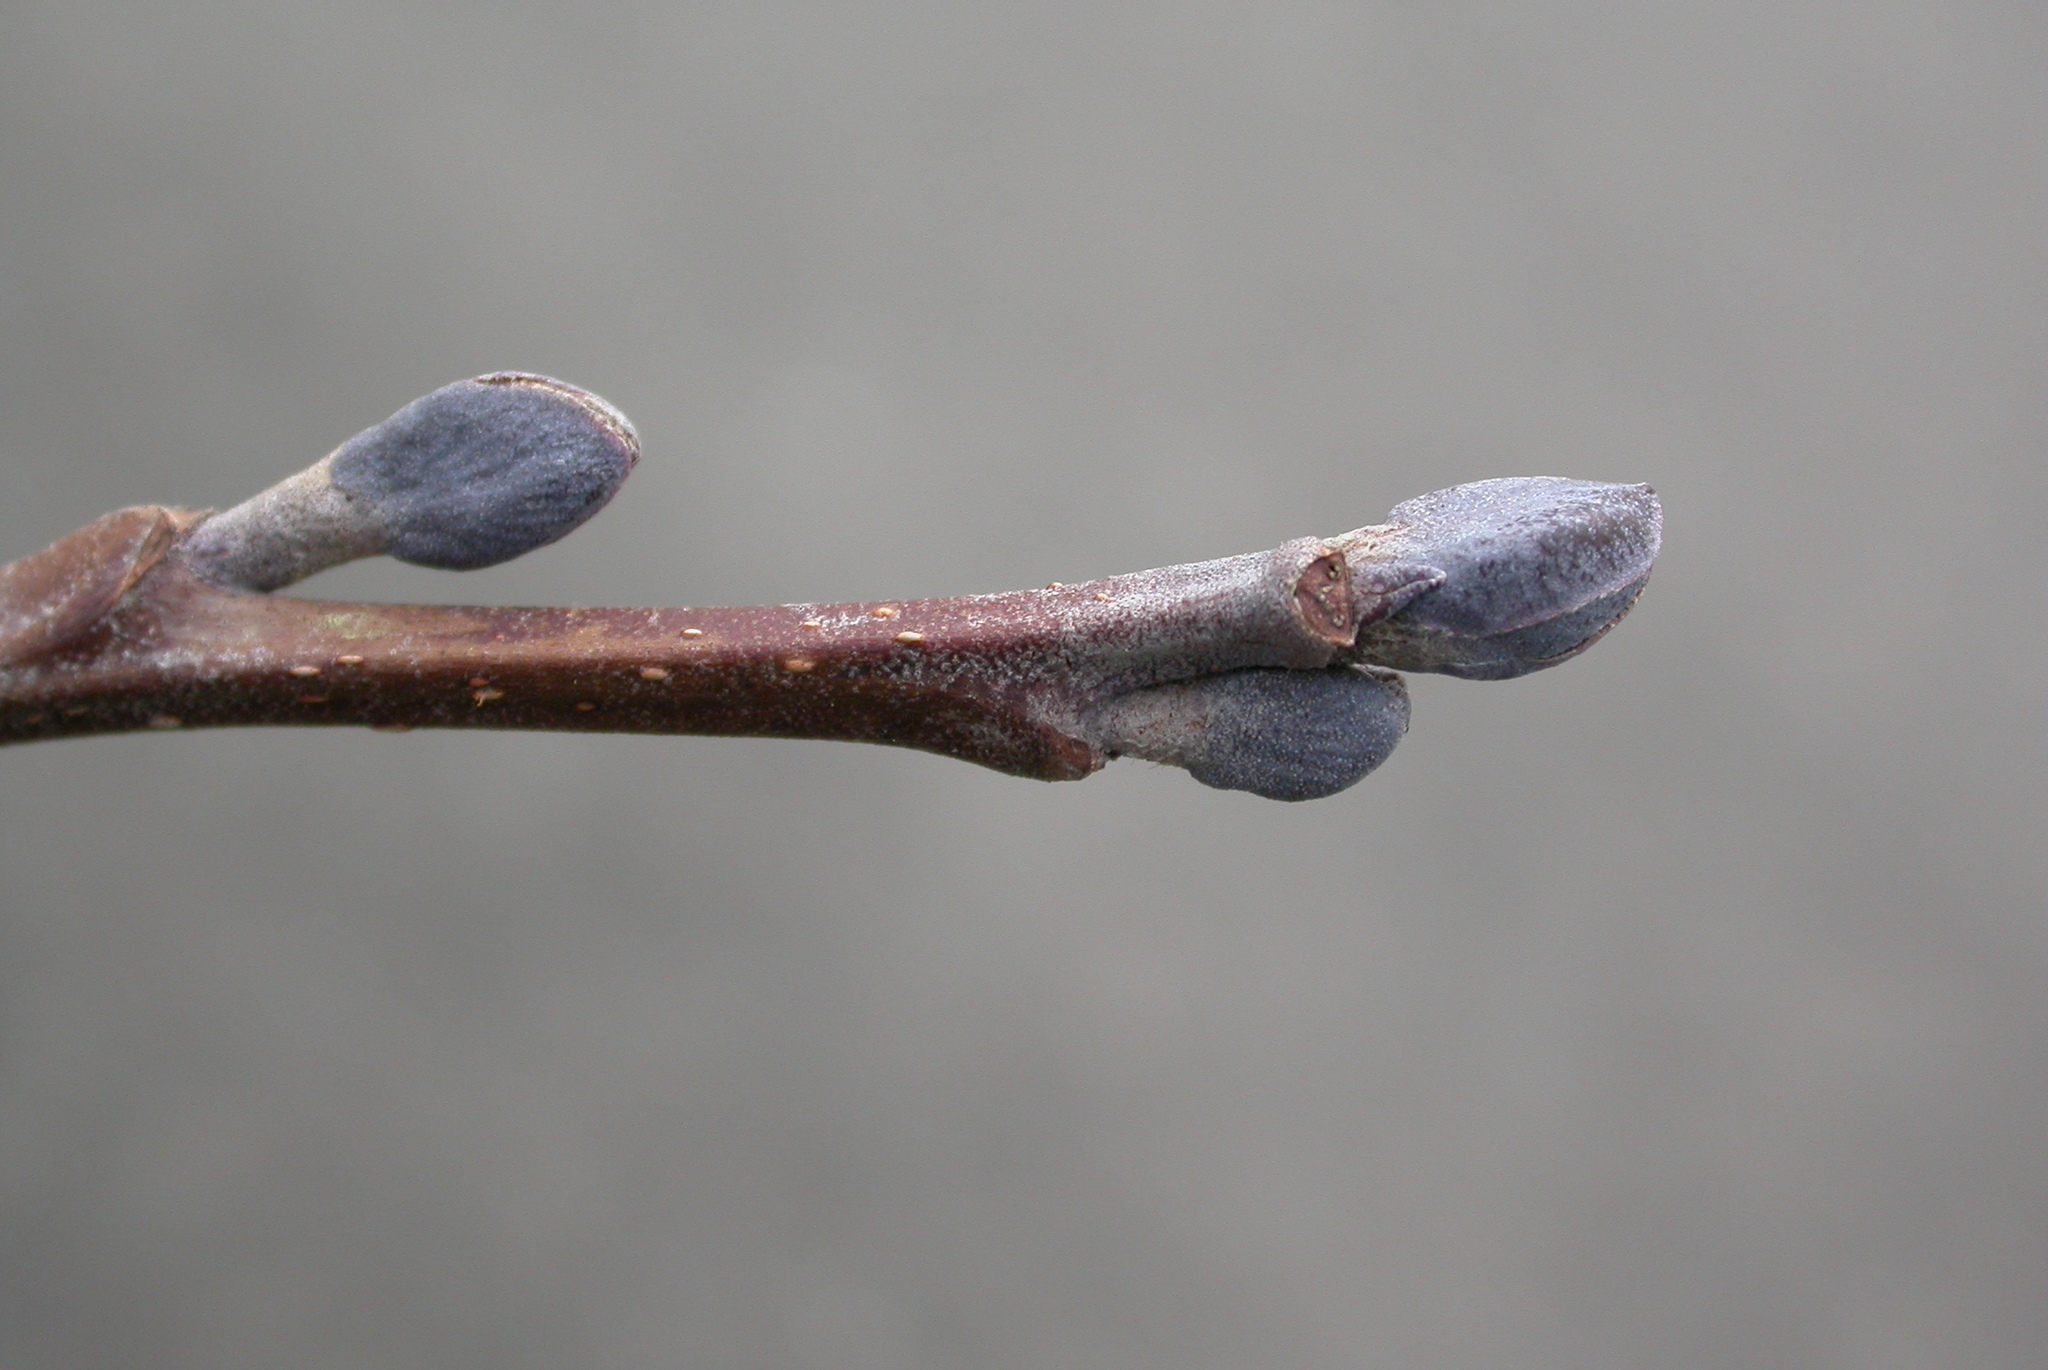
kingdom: Plantae
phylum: Tracheophyta
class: Magnoliopsida
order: Fagales
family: Betulaceae
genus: Alnus
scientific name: Alnus glutinosa
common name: Black alder
